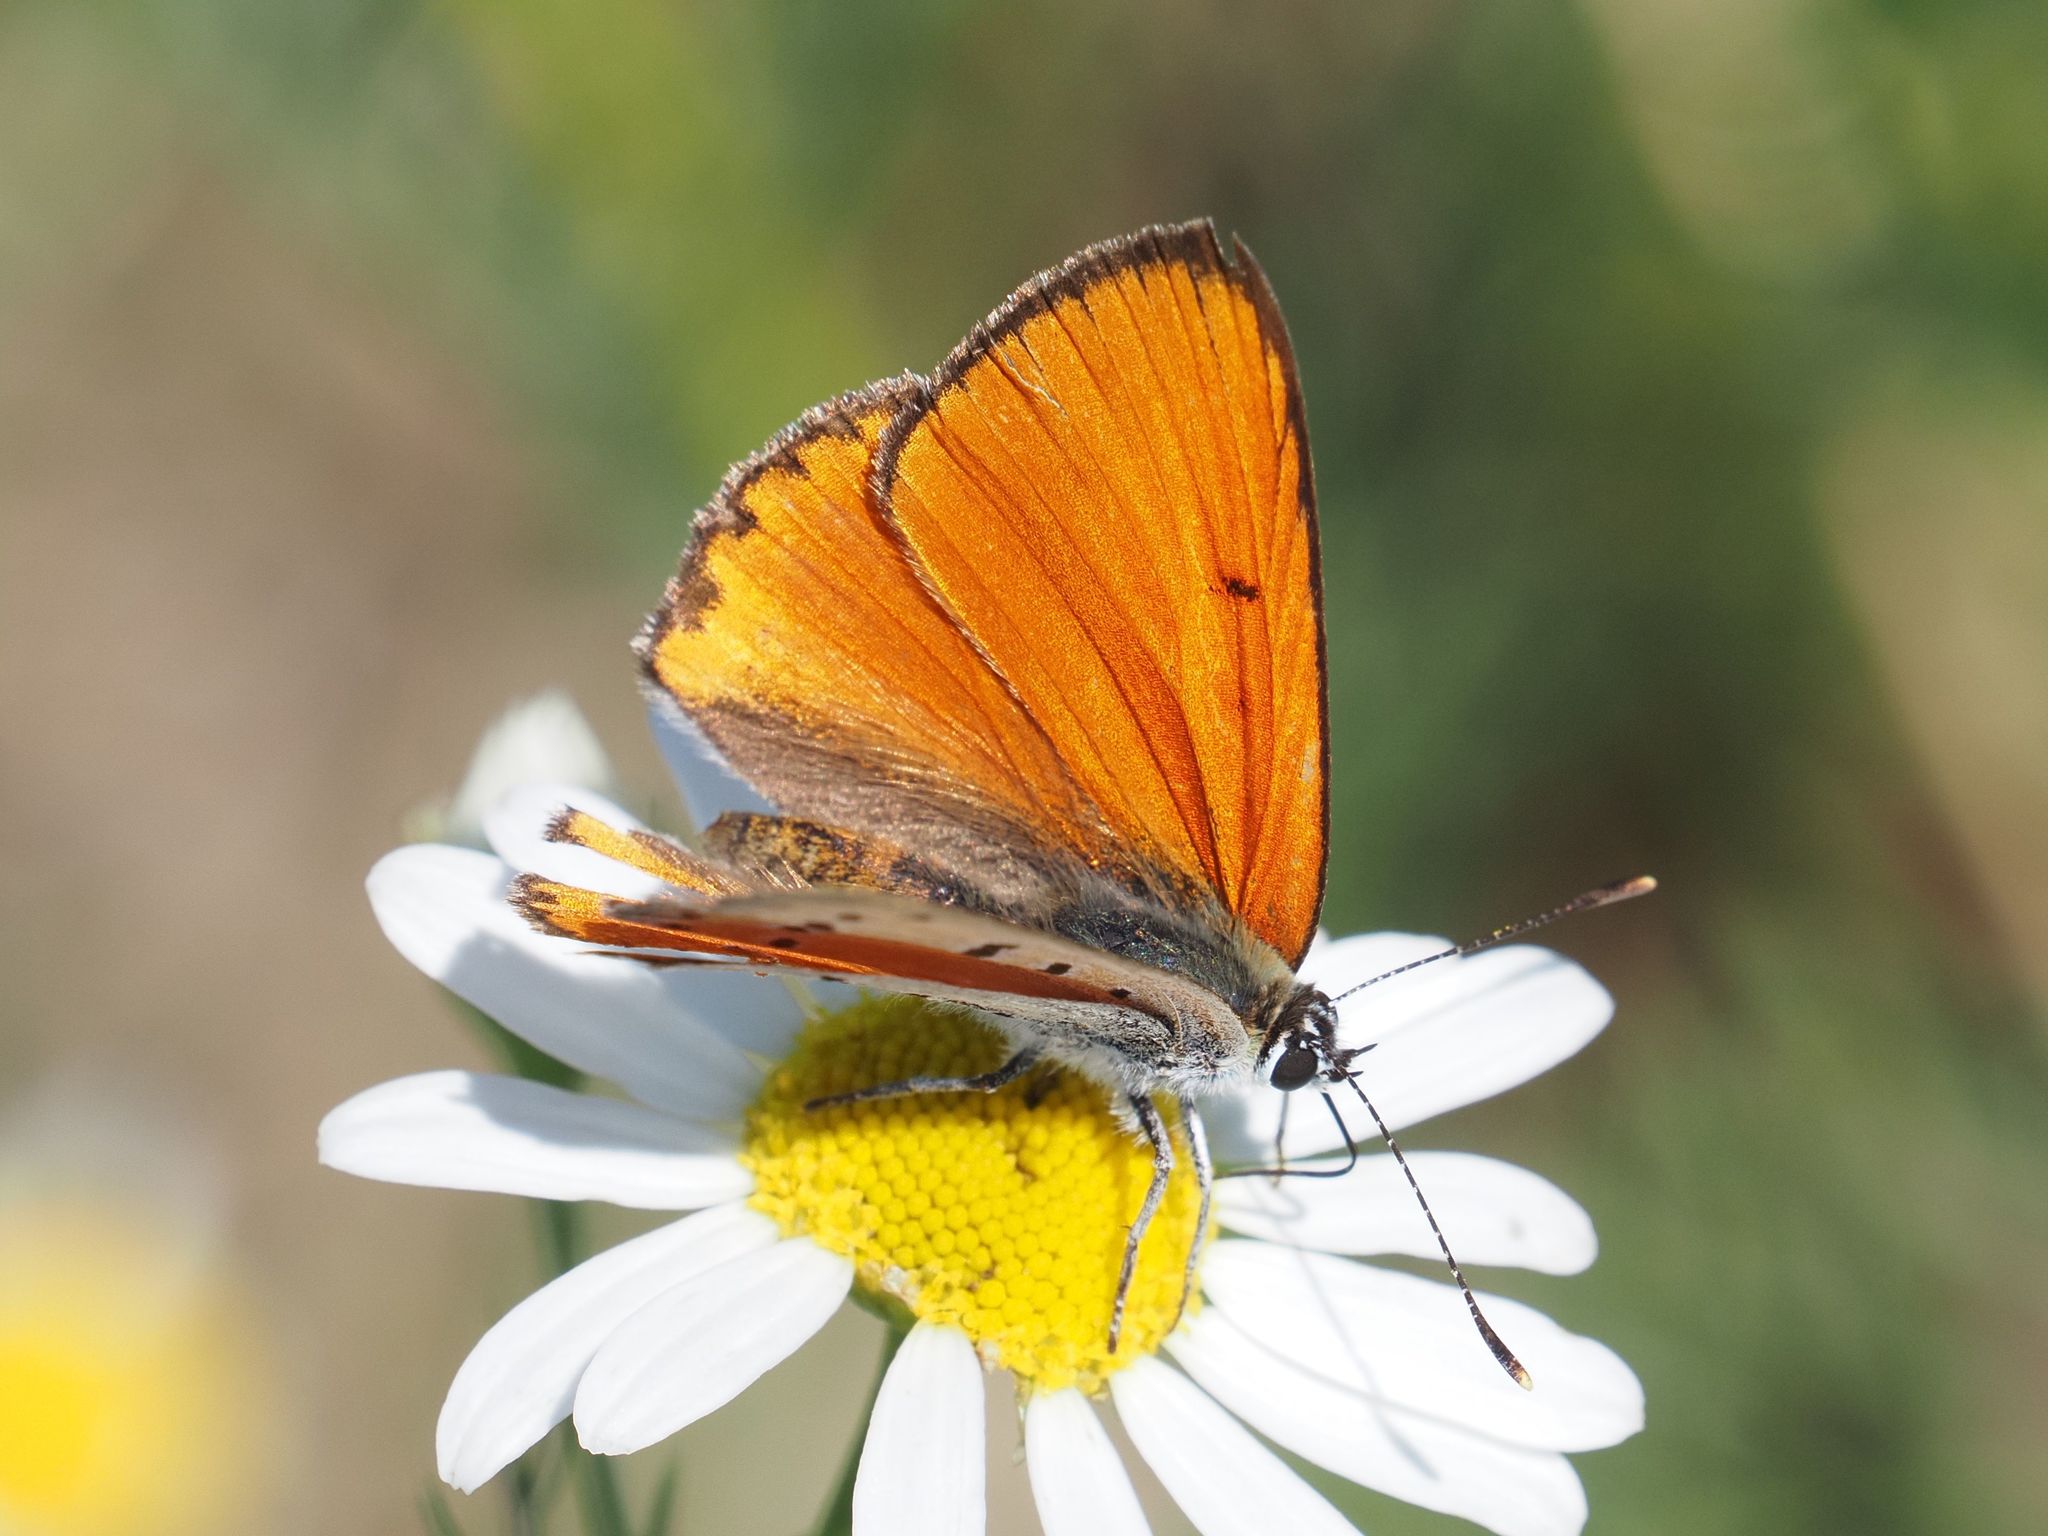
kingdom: Animalia
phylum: Arthropoda
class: Insecta
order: Lepidoptera
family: Lycaenidae
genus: Lycaena
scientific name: Lycaena dispar
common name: Large copper
